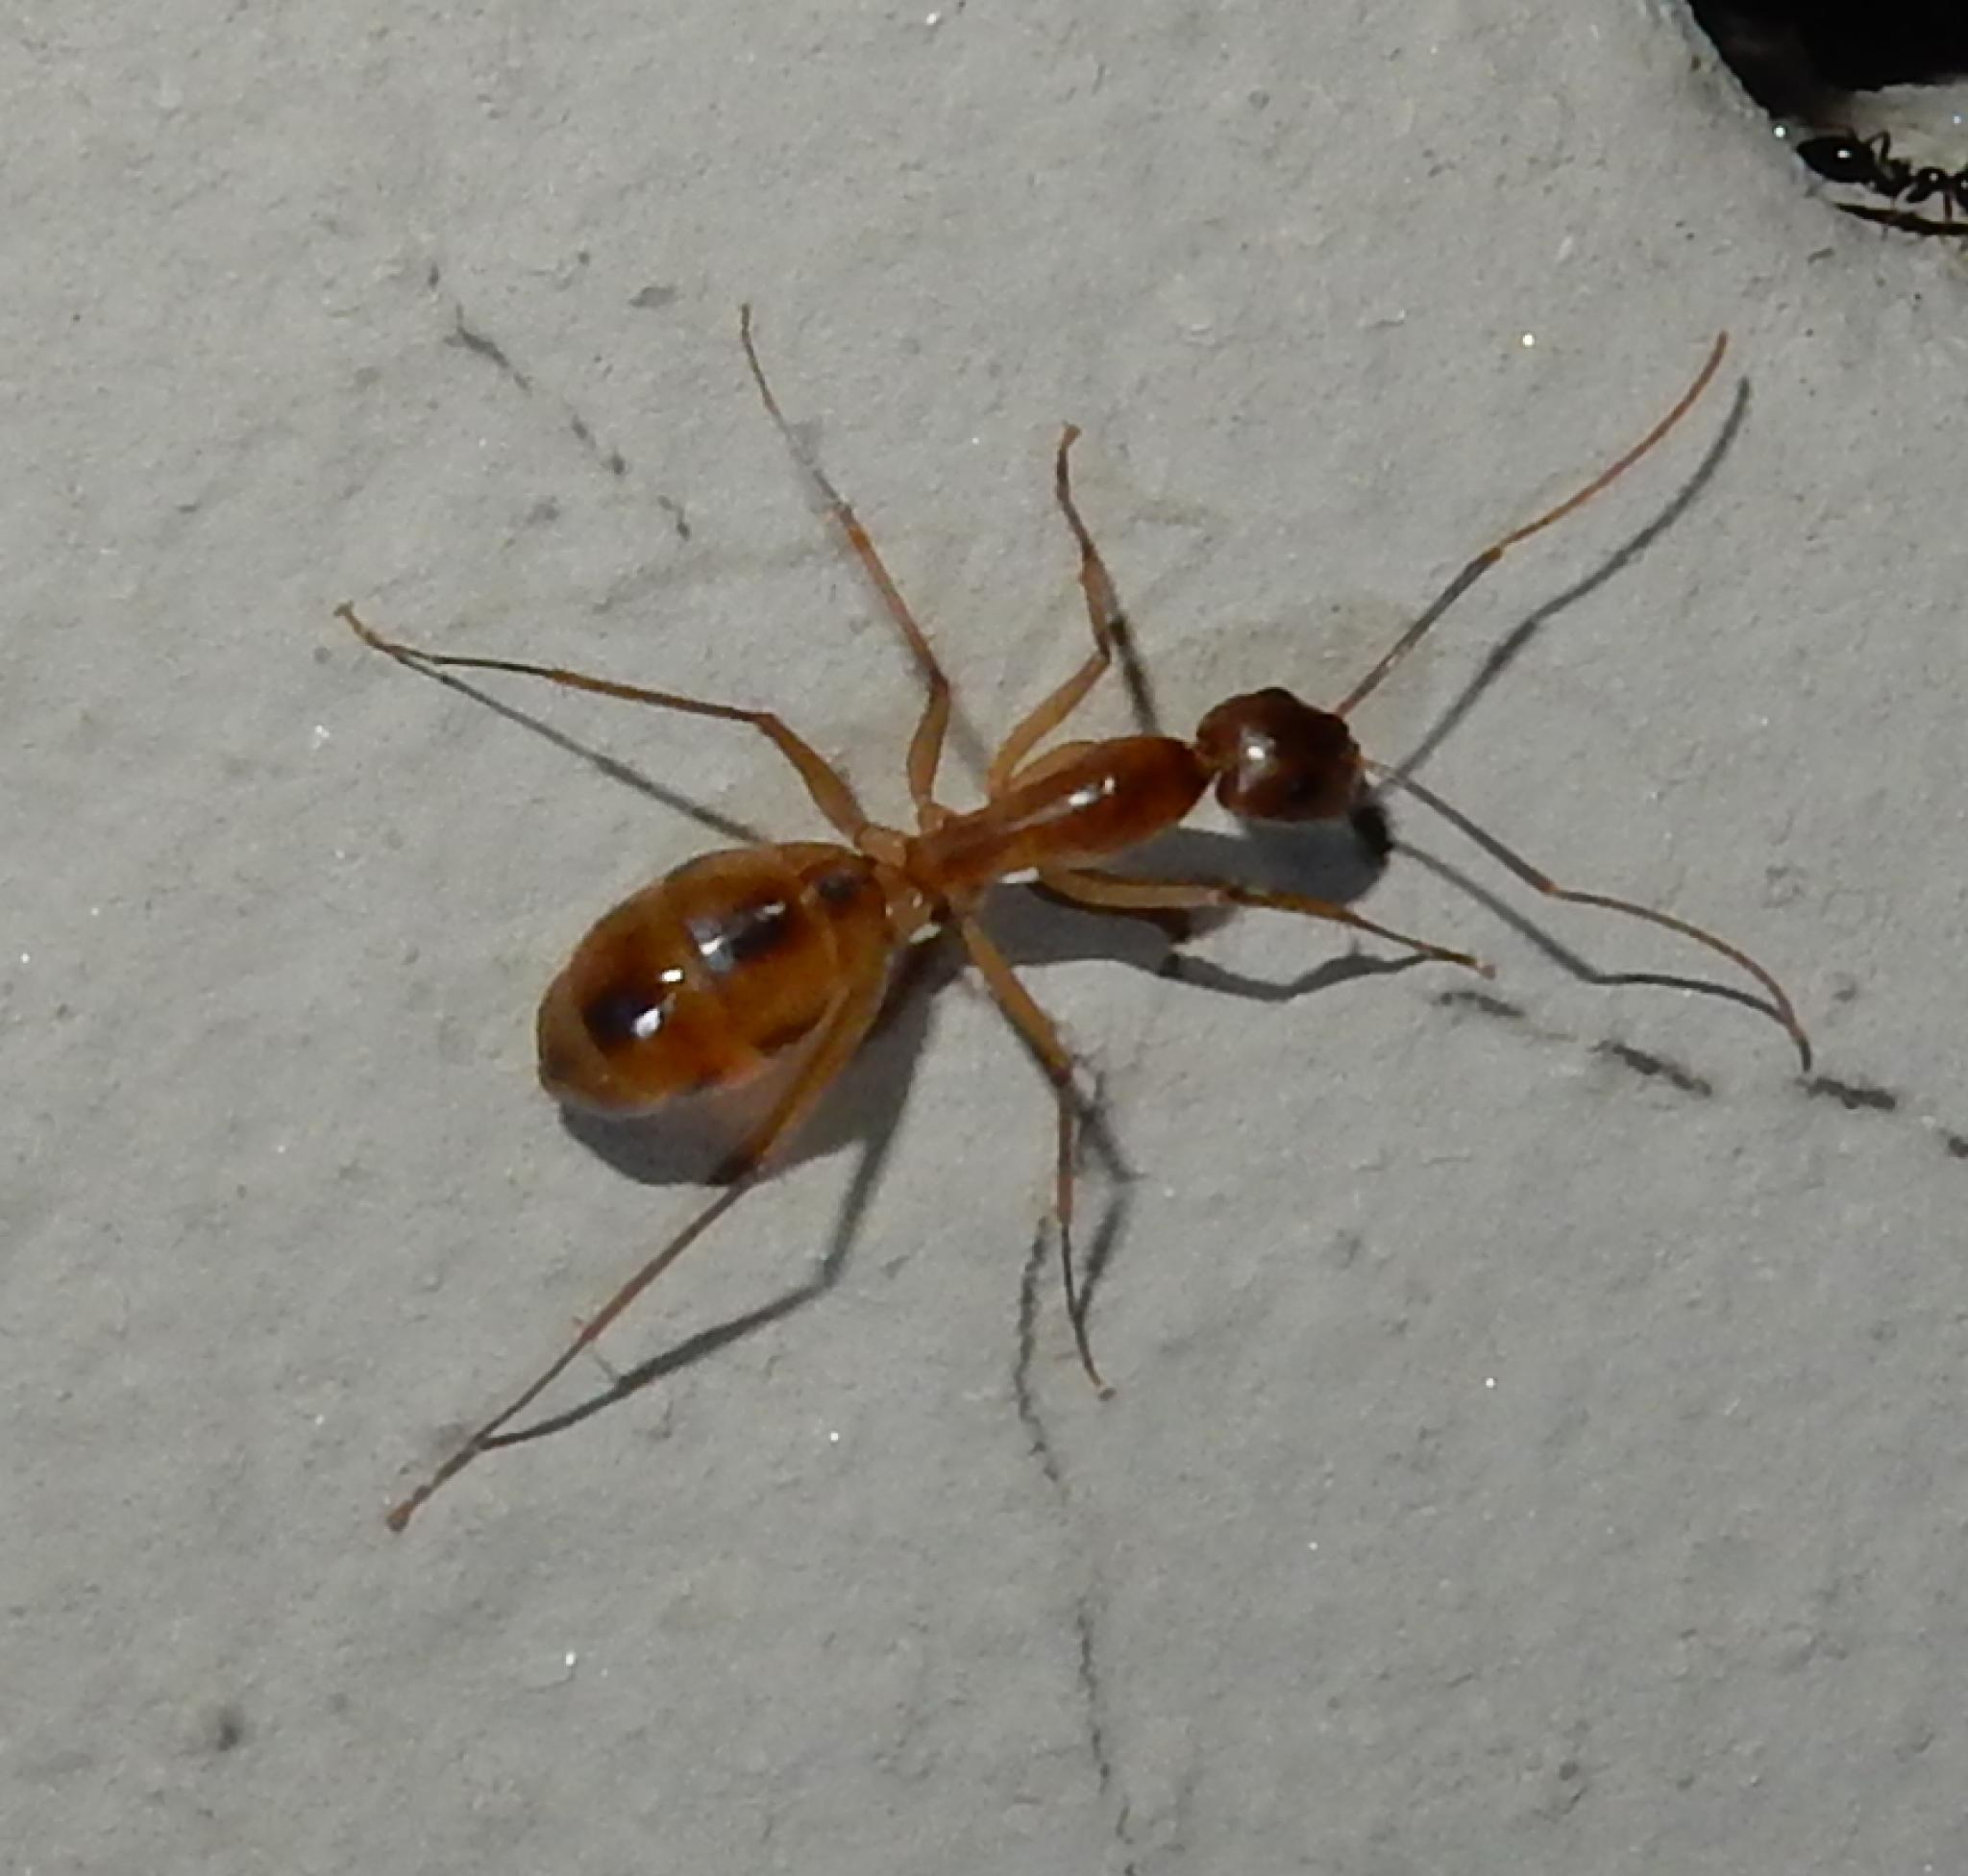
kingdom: Animalia
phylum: Arthropoda
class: Insecta
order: Hymenoptera
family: Formicidae
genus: Camponotus
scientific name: Camponotus maculatus
